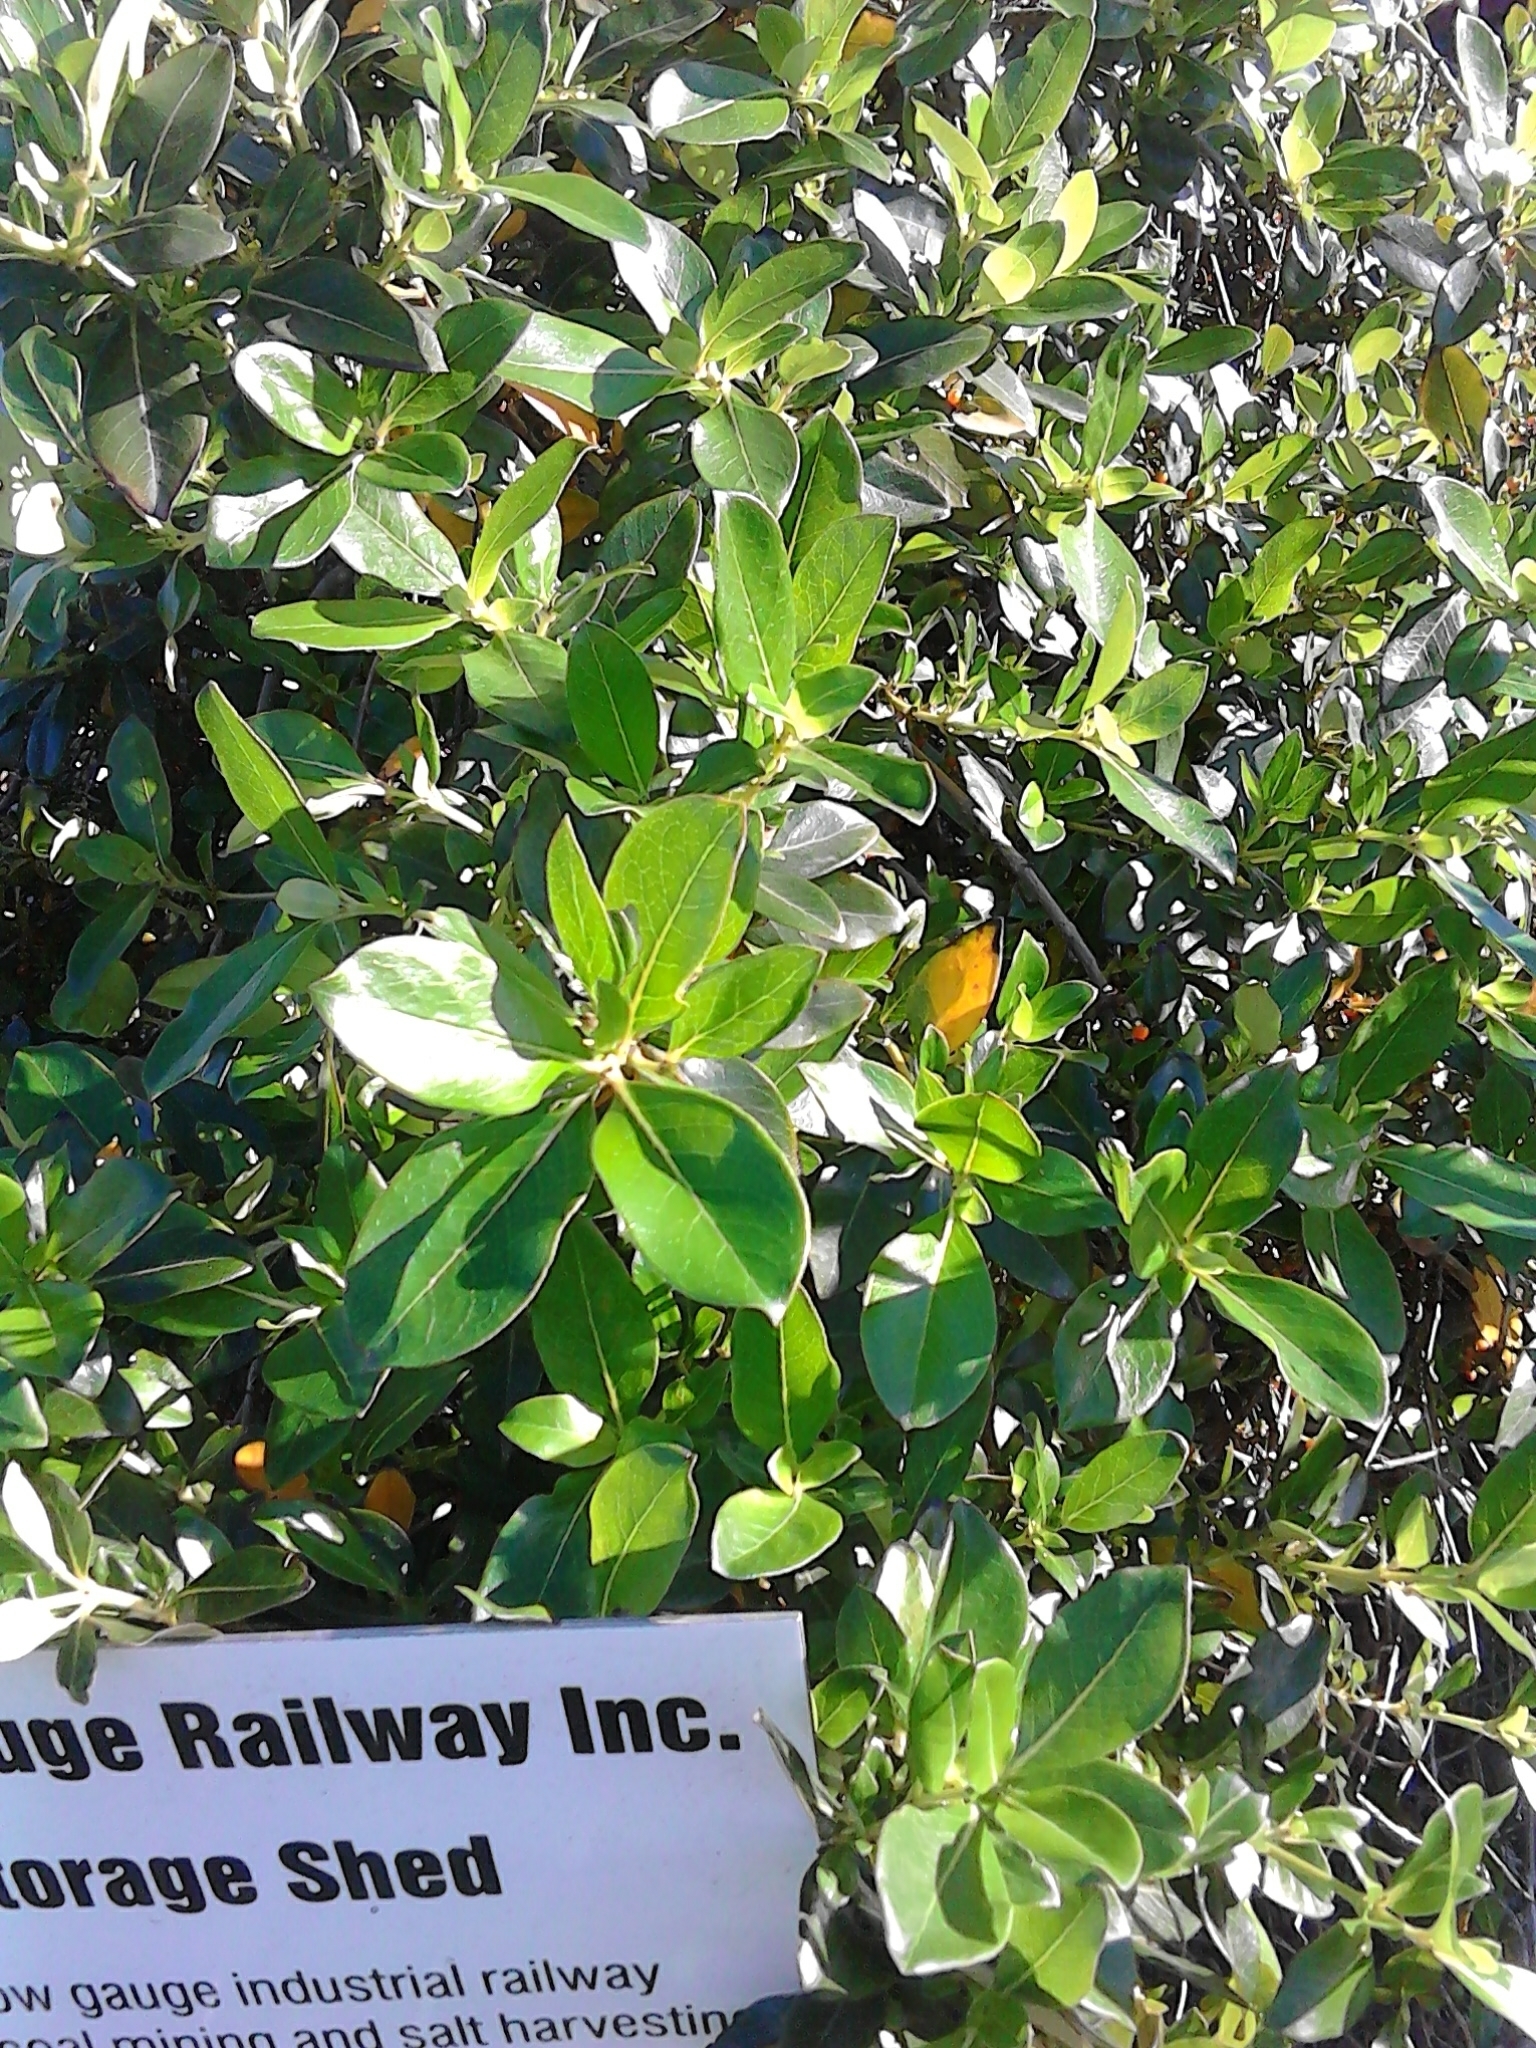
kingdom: Plantae
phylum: Tracheophyta
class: Magnoliopsida
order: Gentianales
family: Rubiaceae
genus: Coprosma
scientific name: Coprosma robusta
